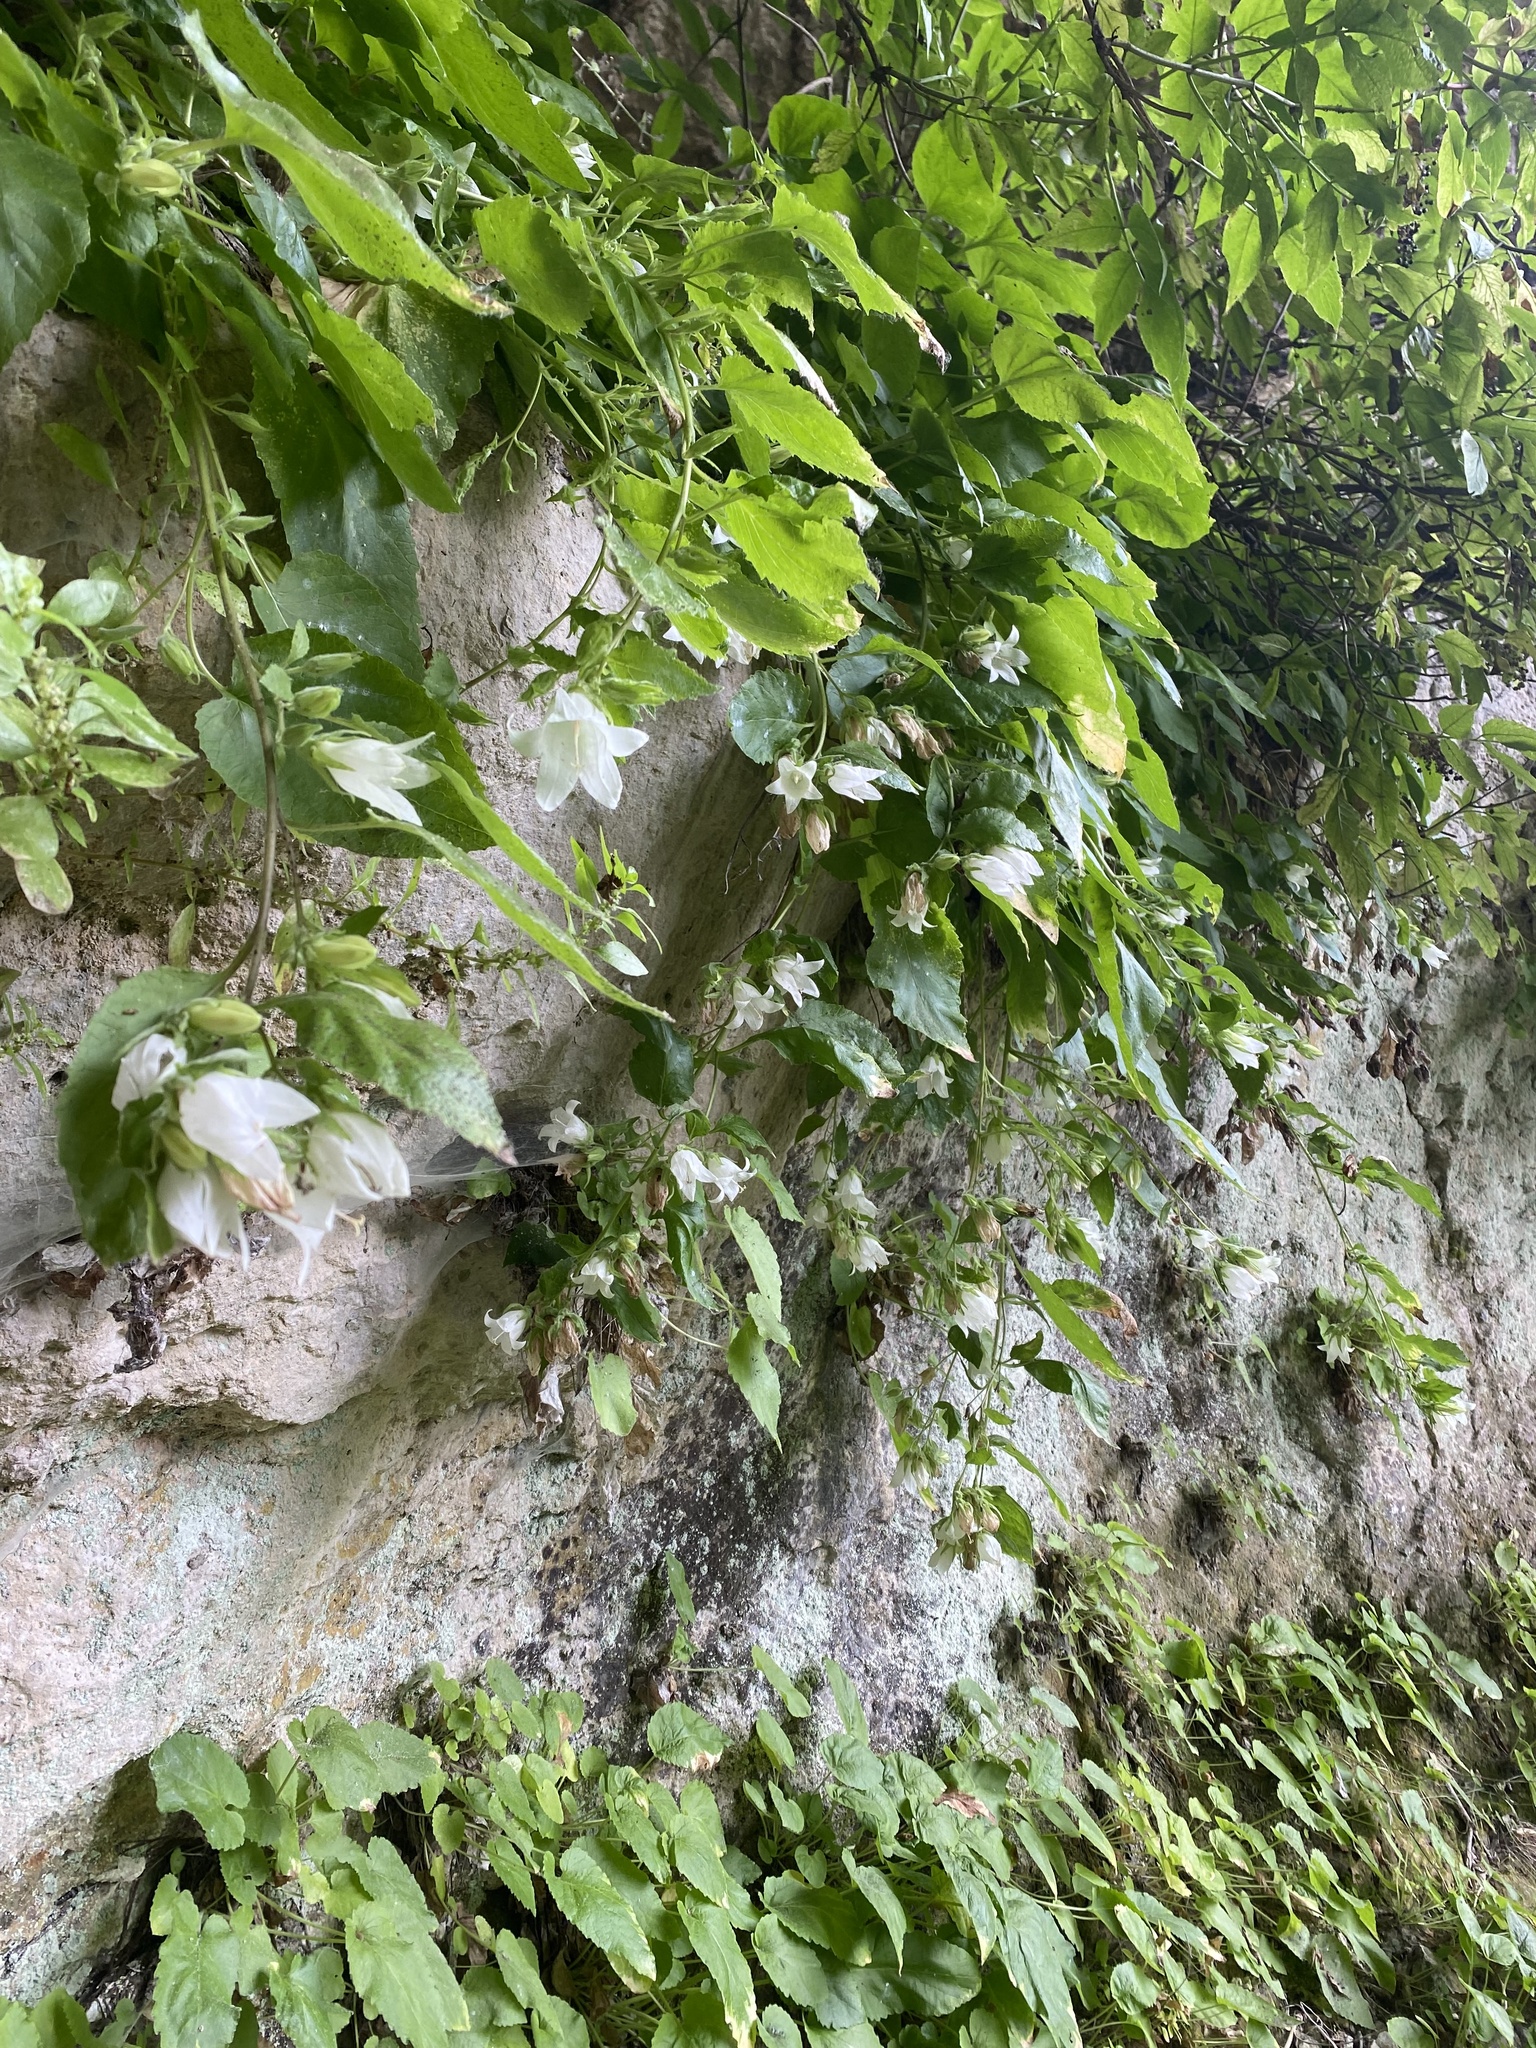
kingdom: Plantae
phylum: Tracheophyta
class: Magnoliopsida
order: Asterales
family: Campanulaceae
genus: Campanula
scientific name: Campanula pendula
